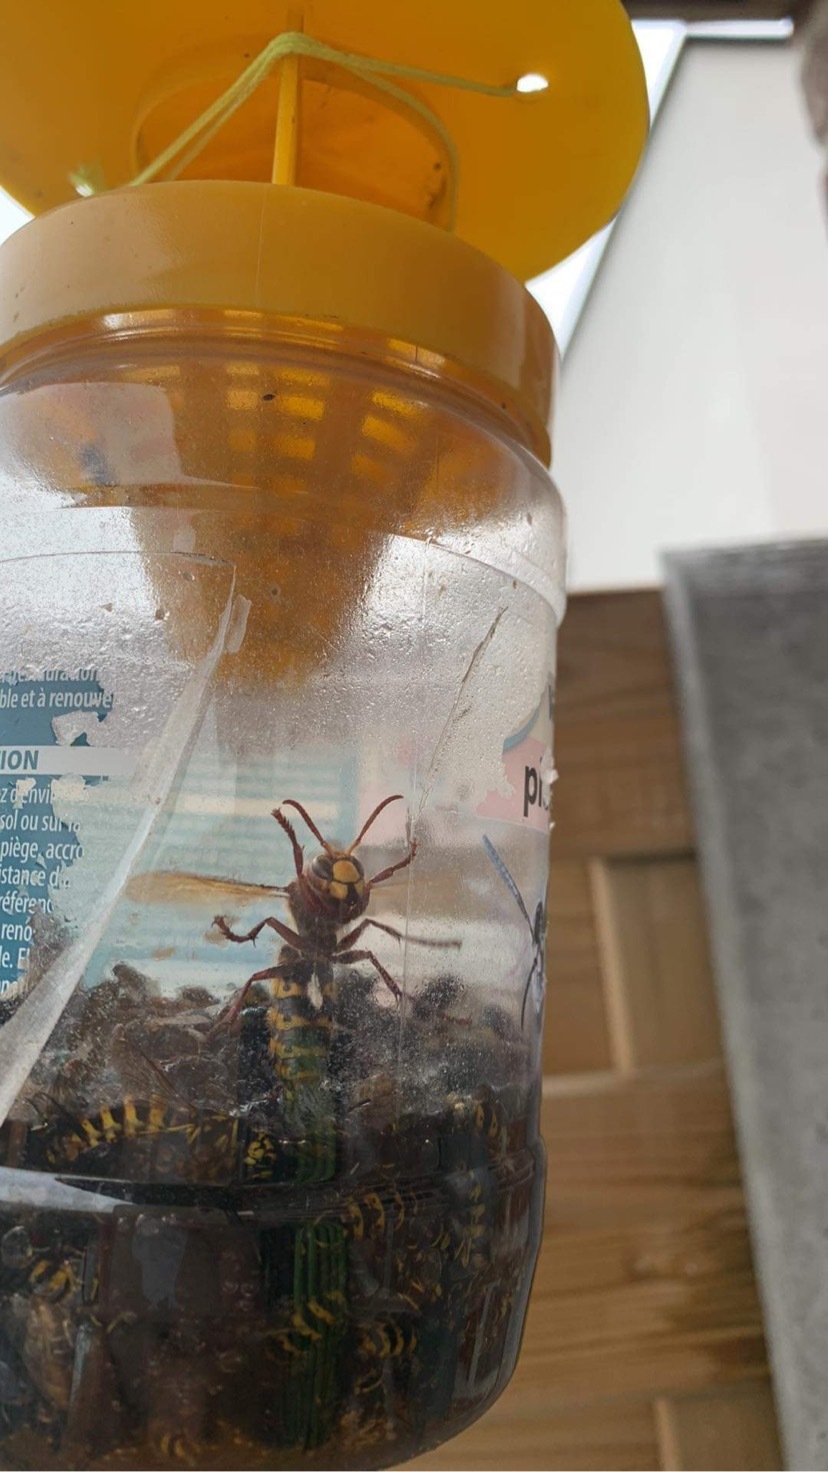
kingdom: Animalia
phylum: Arthropoda
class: Insecta
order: Hymenoptera
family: Vespidae
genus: Vespa
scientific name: Vespa crabro
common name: Hornet
